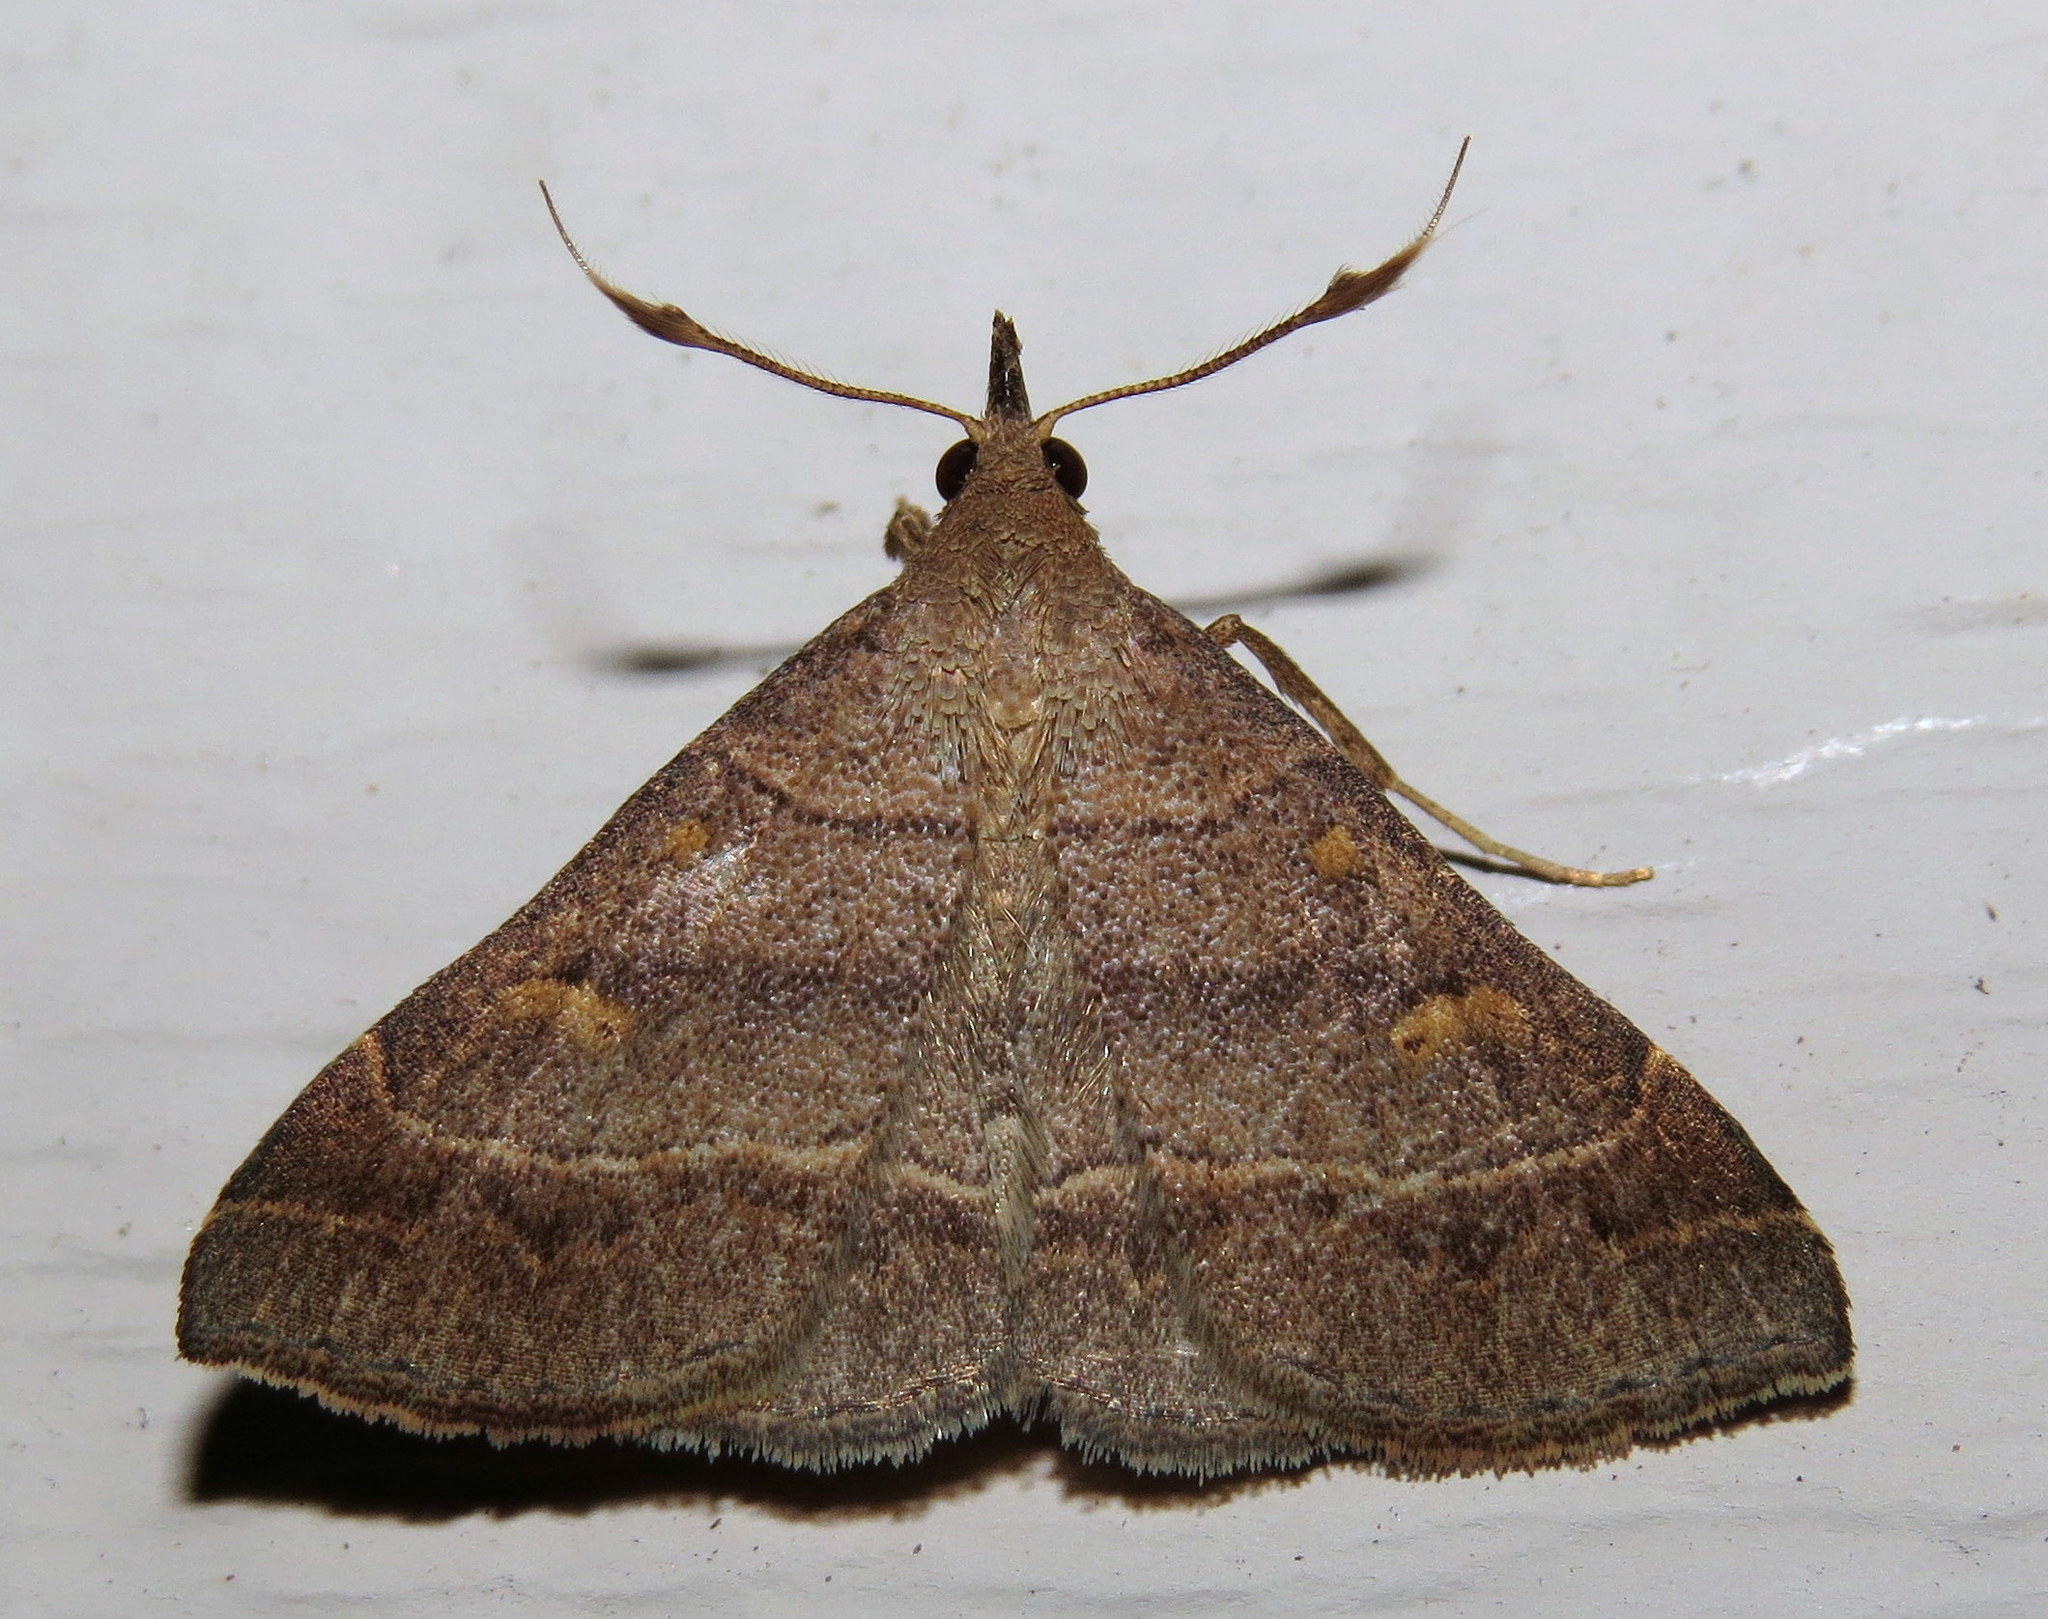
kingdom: Animalia
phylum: Arthropoda
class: Insecta
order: Lepidoptera
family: Erebidae
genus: Renia
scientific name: Renia flavipunctalis
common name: Yellow-spotted renia moth
